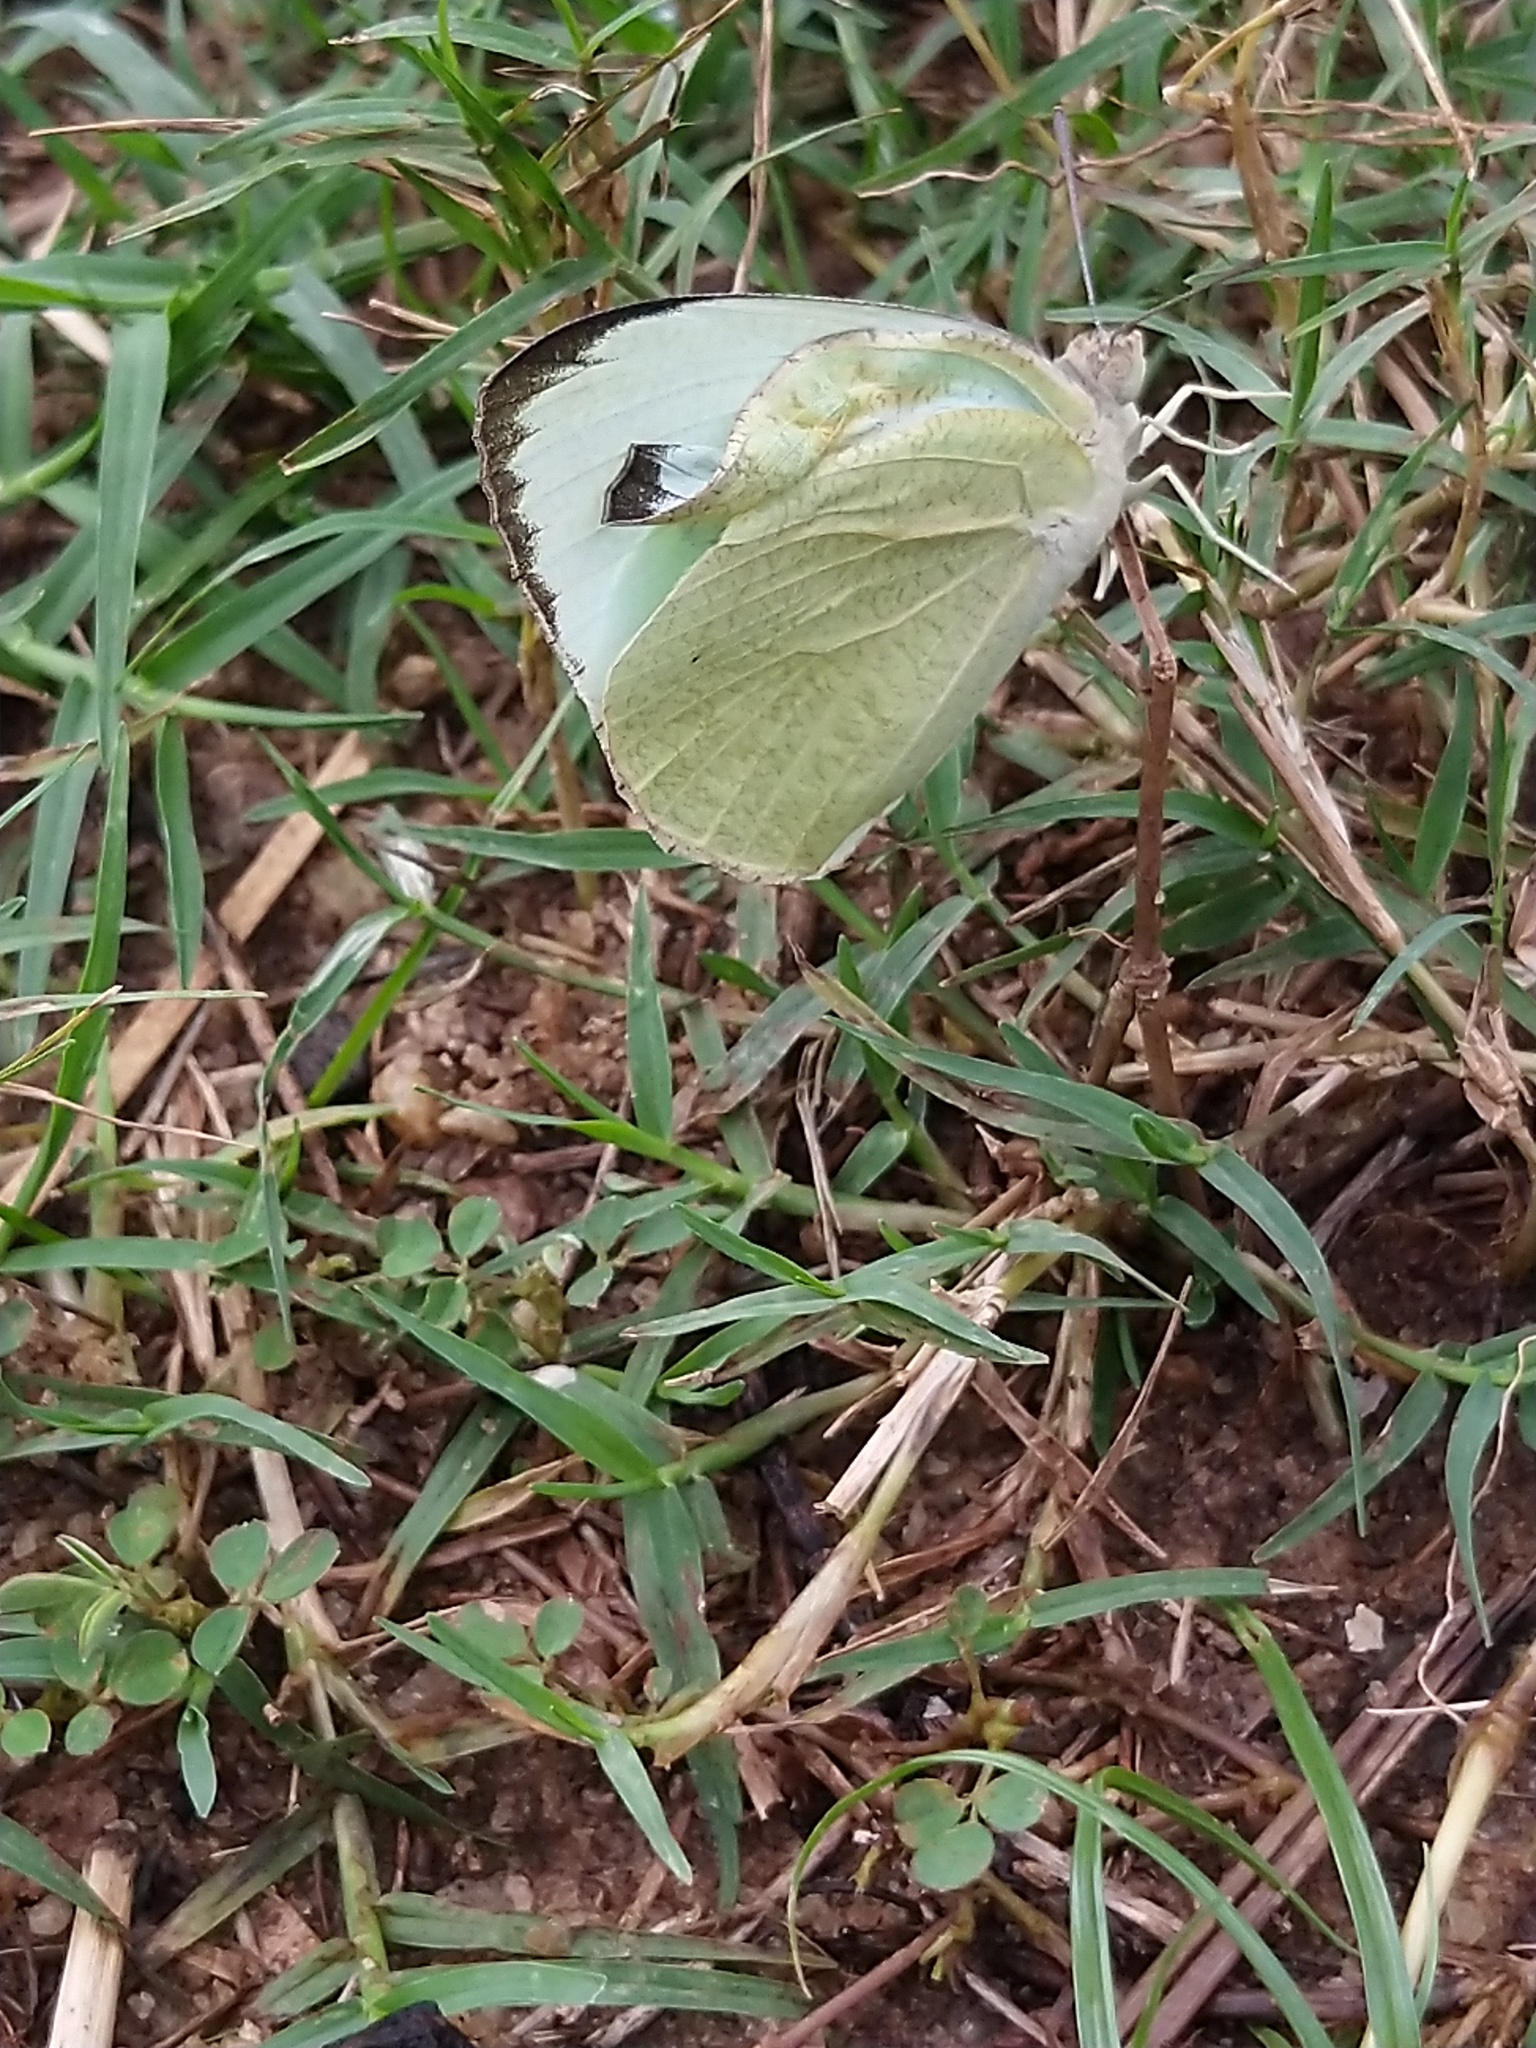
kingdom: Animalia
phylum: Arthropoda
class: Insecta
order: Lepidoptera
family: Pieridae
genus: Catopsilia
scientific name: Catopsilia pyranthe
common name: Mottled emigrant
